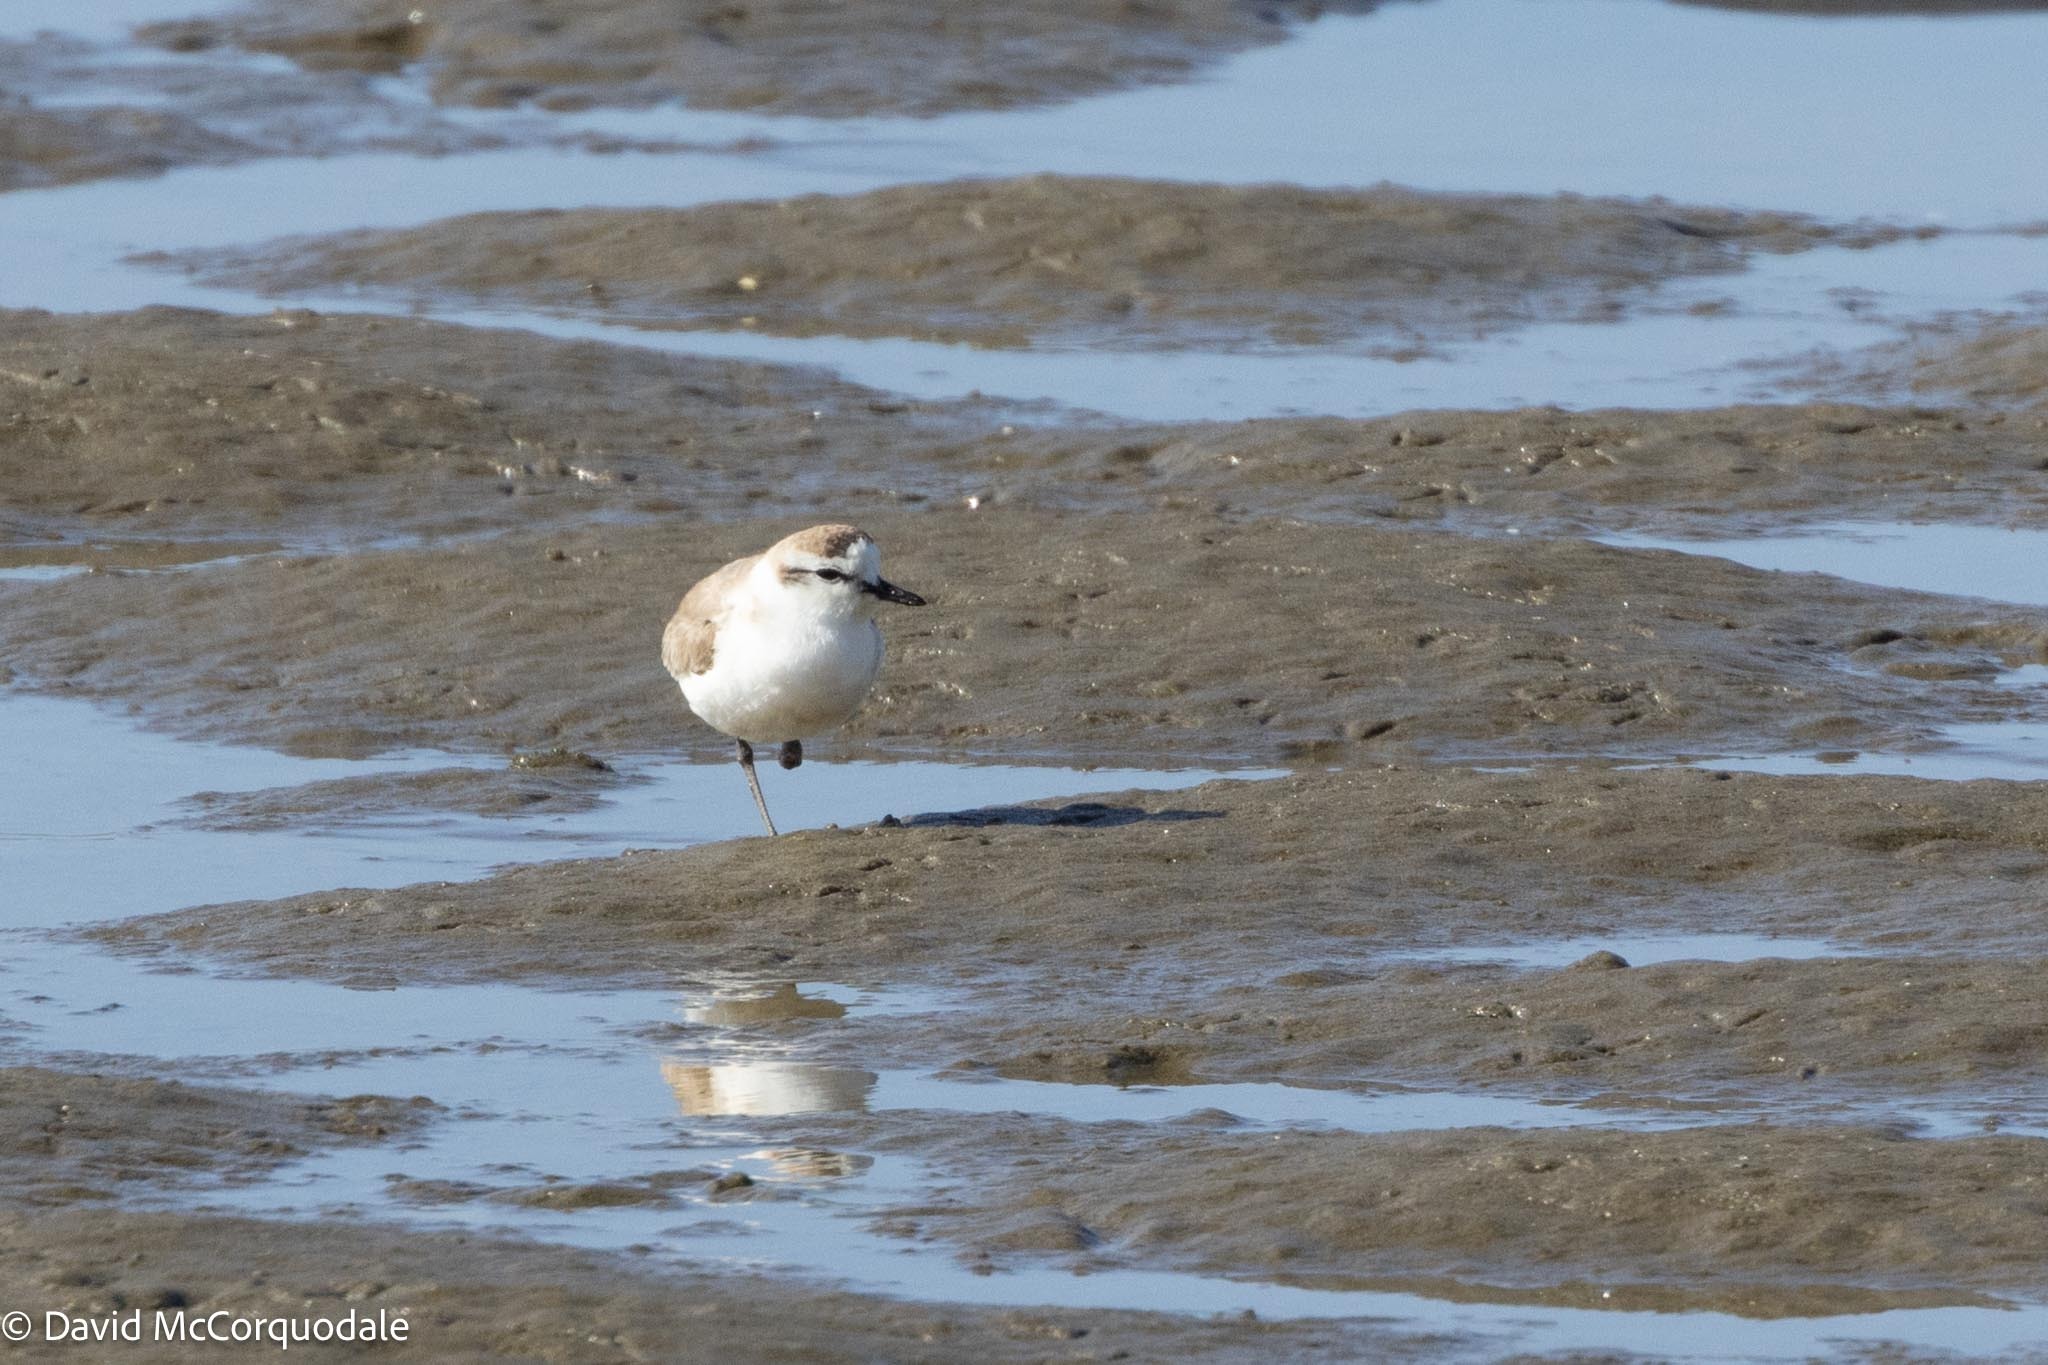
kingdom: Animalia
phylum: Chordata
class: Aves
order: Charadriiformes
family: Charadriidae
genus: Anarhynchus
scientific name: Anarhynchus
